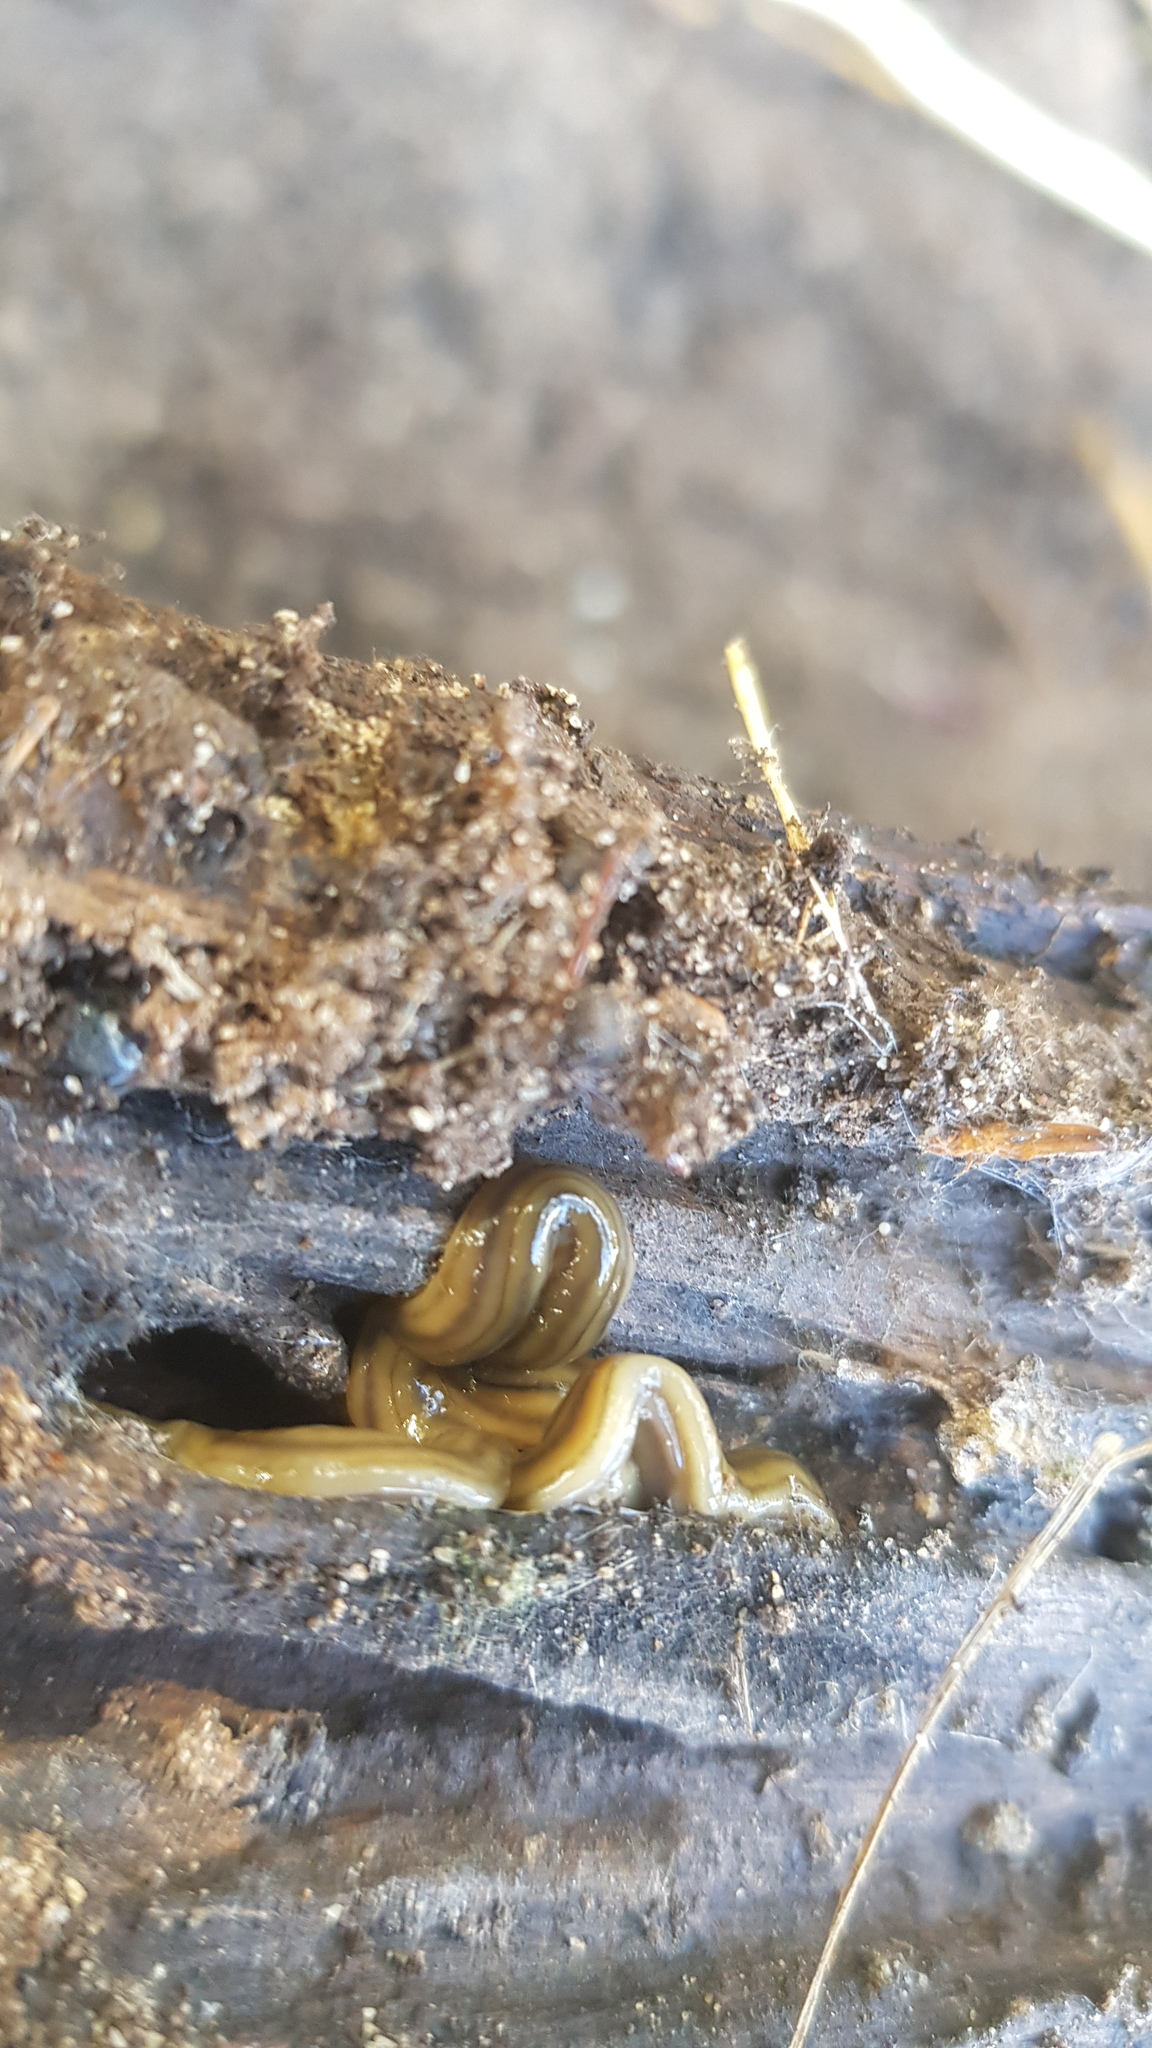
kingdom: Animalia
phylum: Platyhelminthes
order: Tricladida
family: Geoplanidae
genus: Bipalium
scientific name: Bipalium kewense
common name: Hammerhead flatworm
